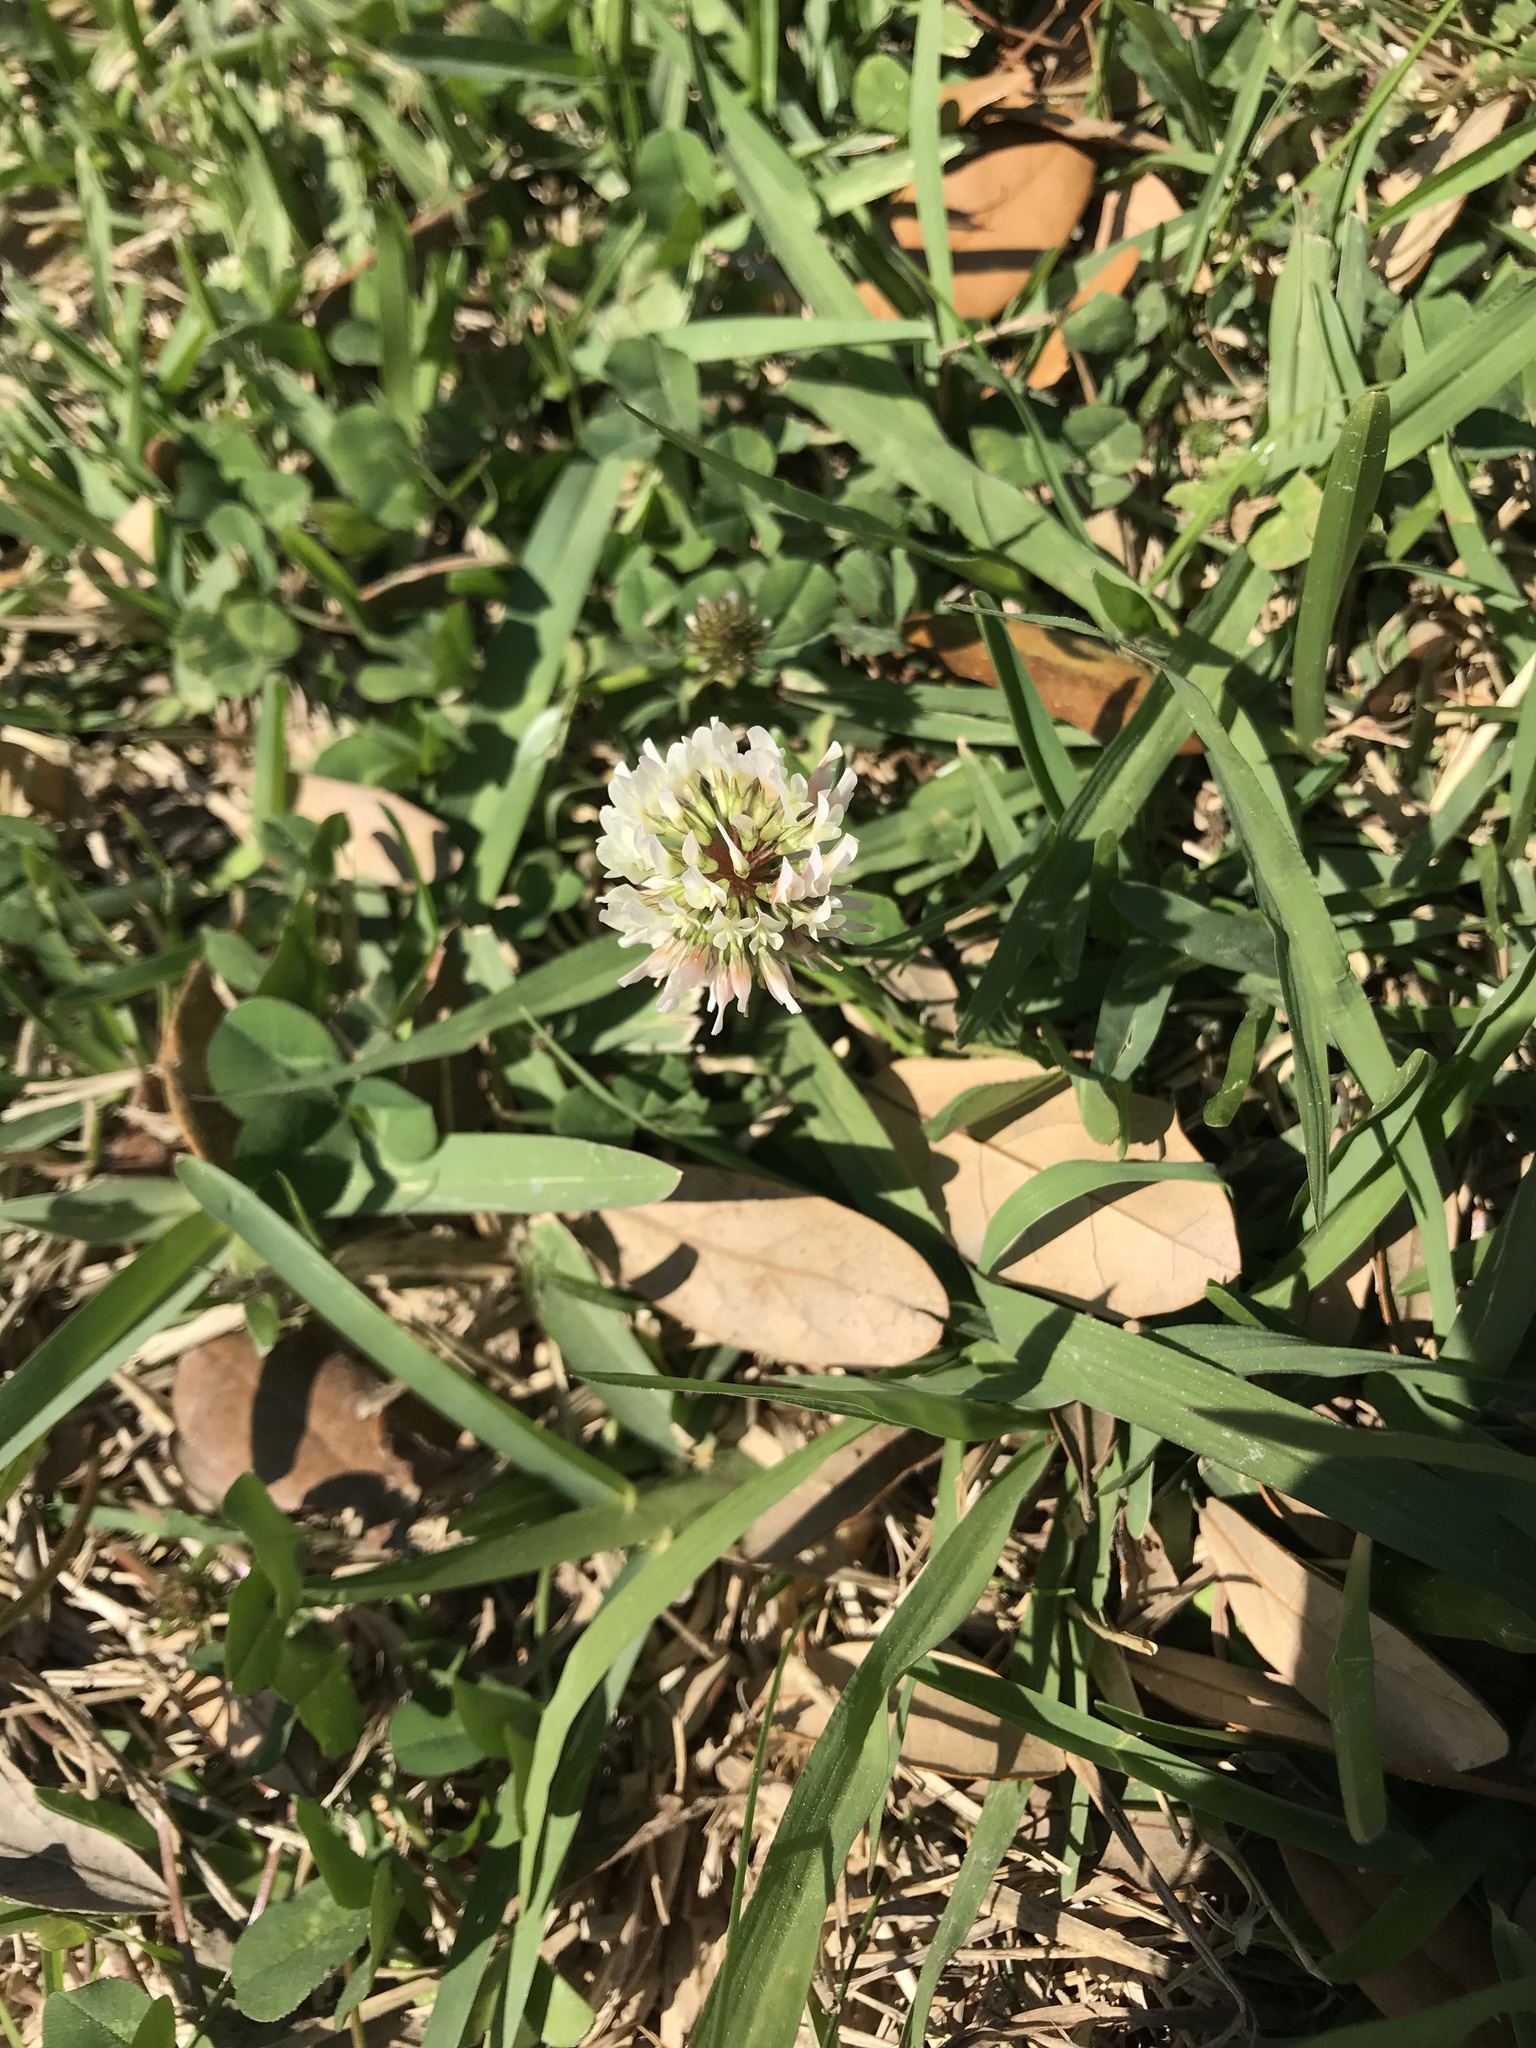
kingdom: Plantae
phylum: Tracheophyta
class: Magnoliopsida
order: Fabales
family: Fabaceae
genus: Trifolium
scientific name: Trifolium repens
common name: White clover
